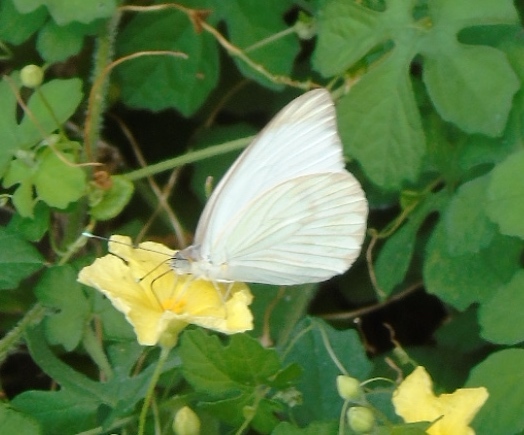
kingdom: Animalia
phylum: Arthropoda
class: Insecta
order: Lepidoptera
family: Pieridae
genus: Ascia
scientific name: Ascia monuste
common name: Great southern white
